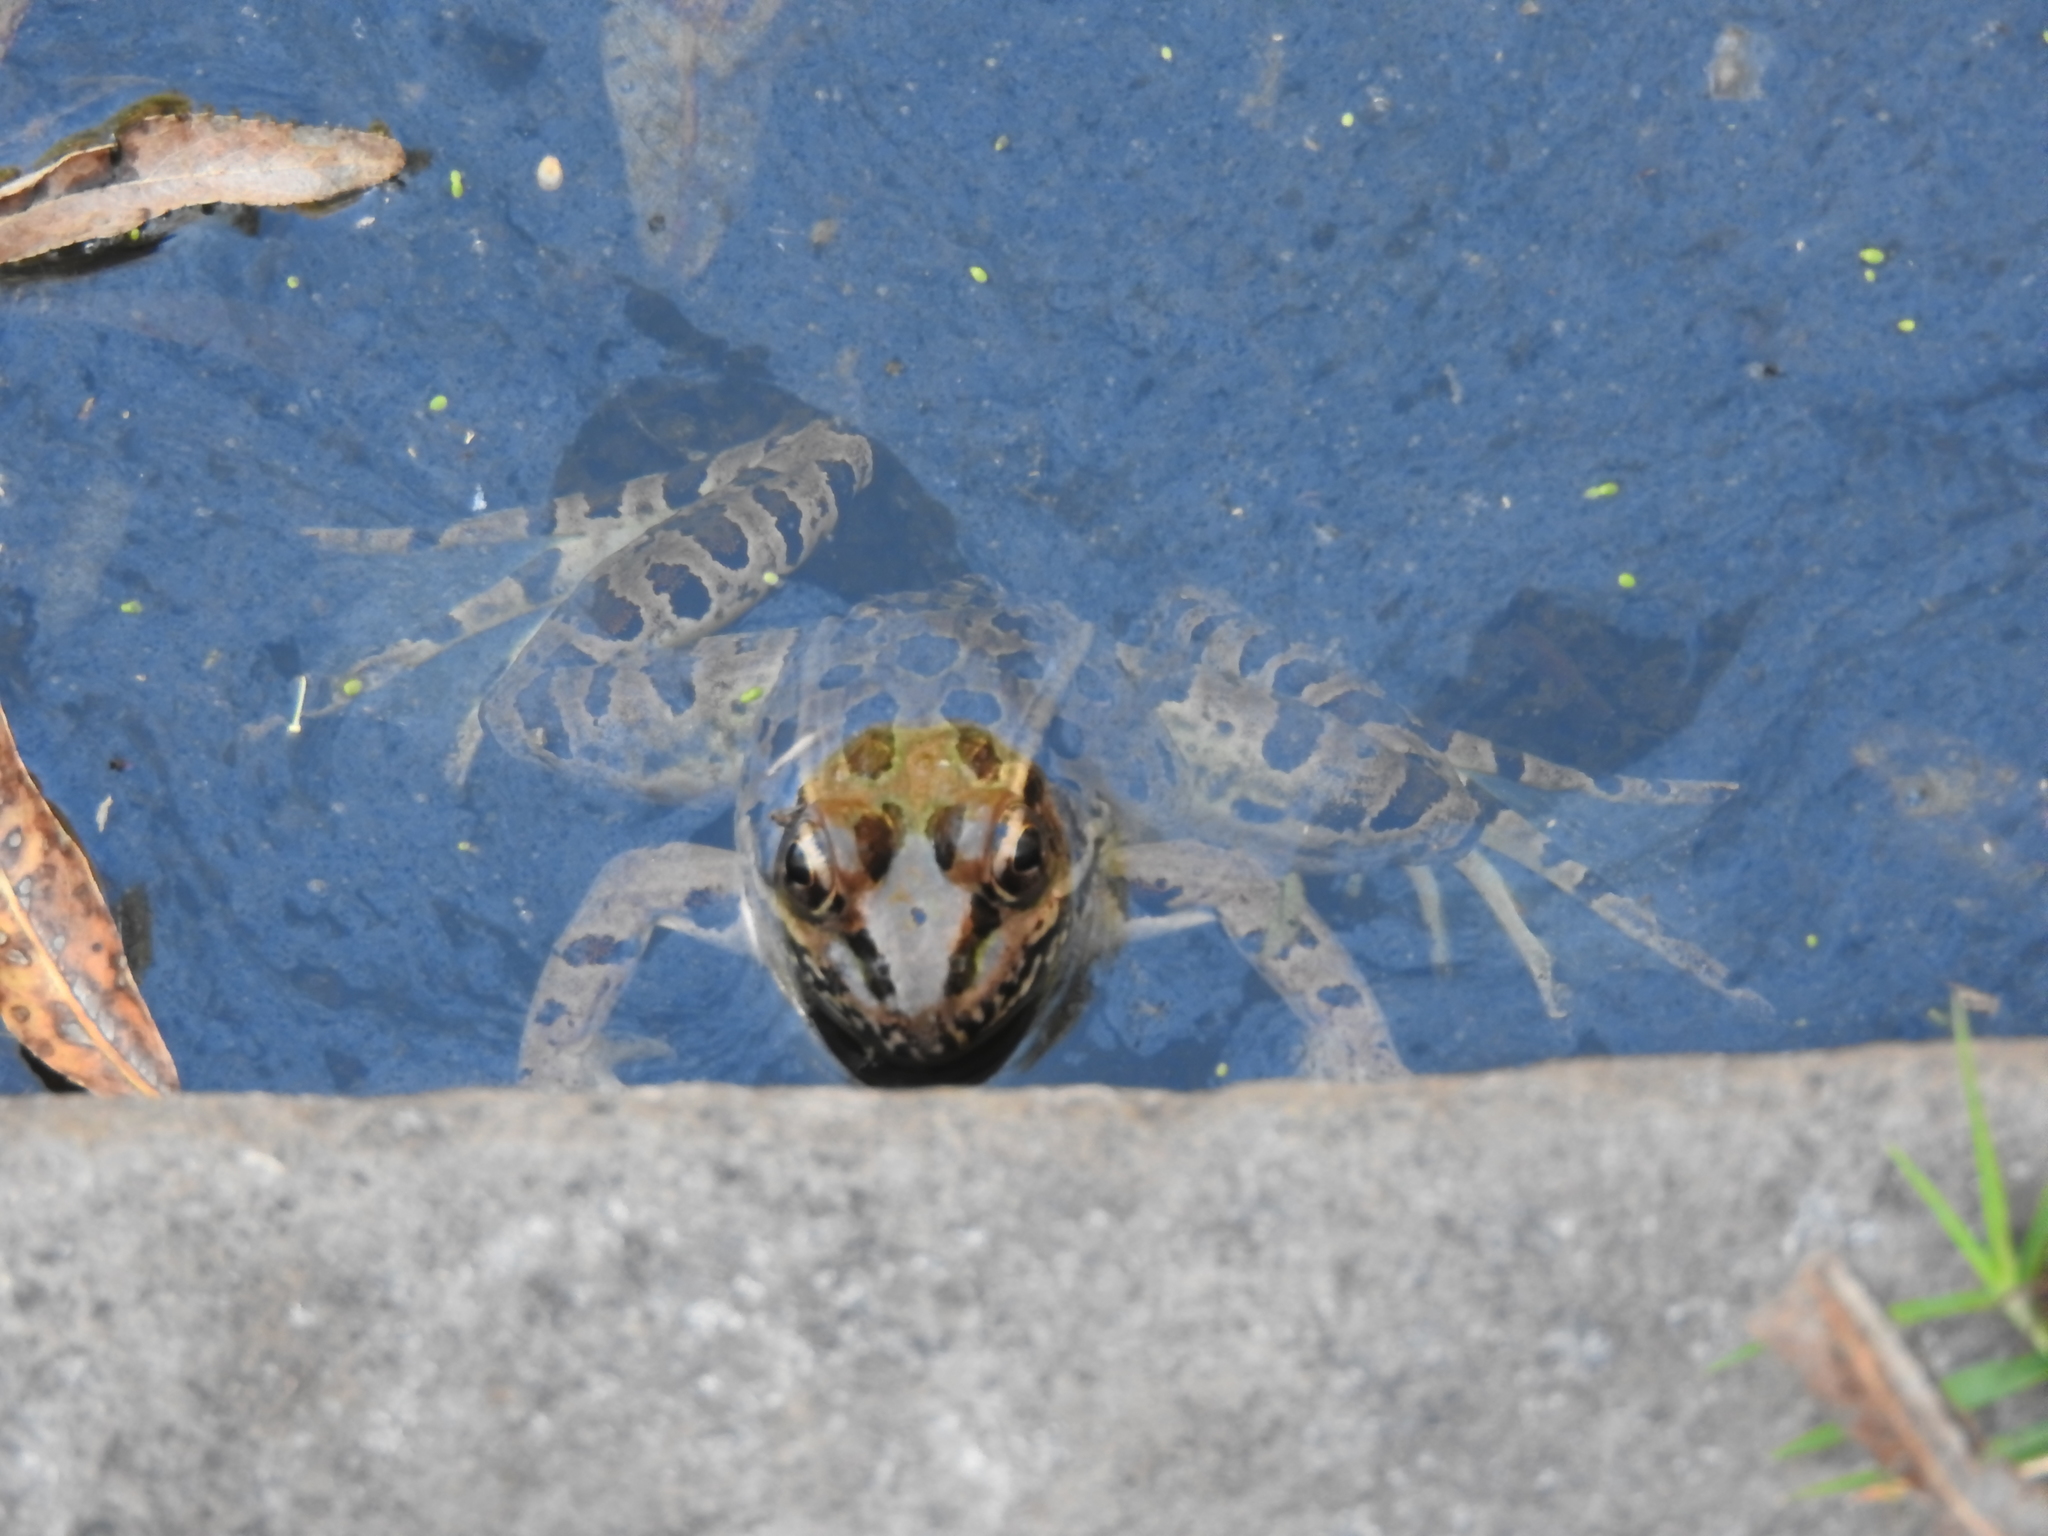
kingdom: Animalia
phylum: Chordata
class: Amphibia
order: Anura
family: Ranidae
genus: Lithobates
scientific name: Lithobates neovolcanicus
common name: Transverse volcanic leopard frog
